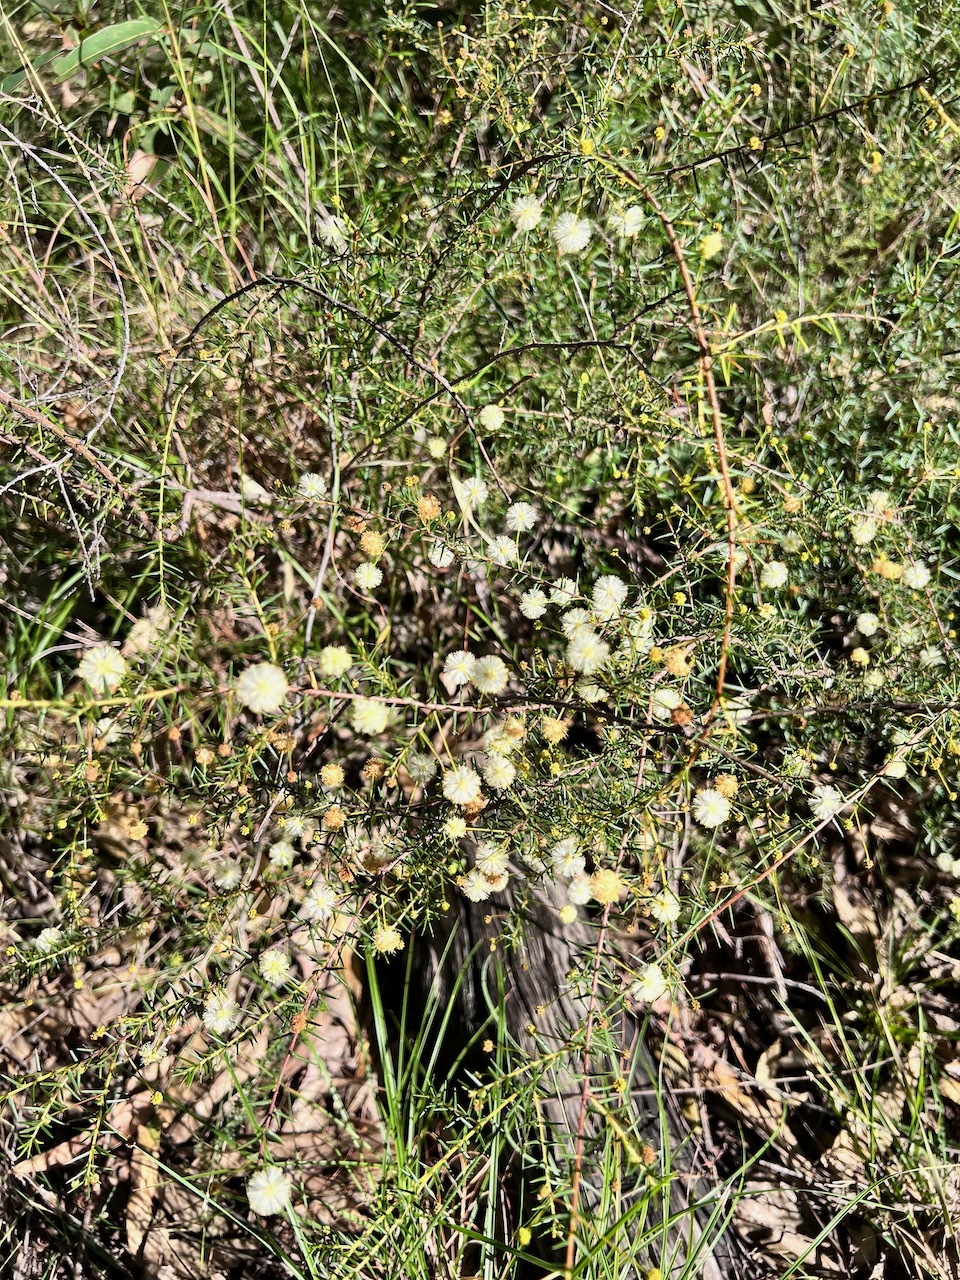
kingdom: Plantae
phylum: Tracheophyta
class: Magnoliopsida
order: Fabales
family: Fabaceae
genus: Acacia
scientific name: Acacia ulicifolia
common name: Juniper wattle
